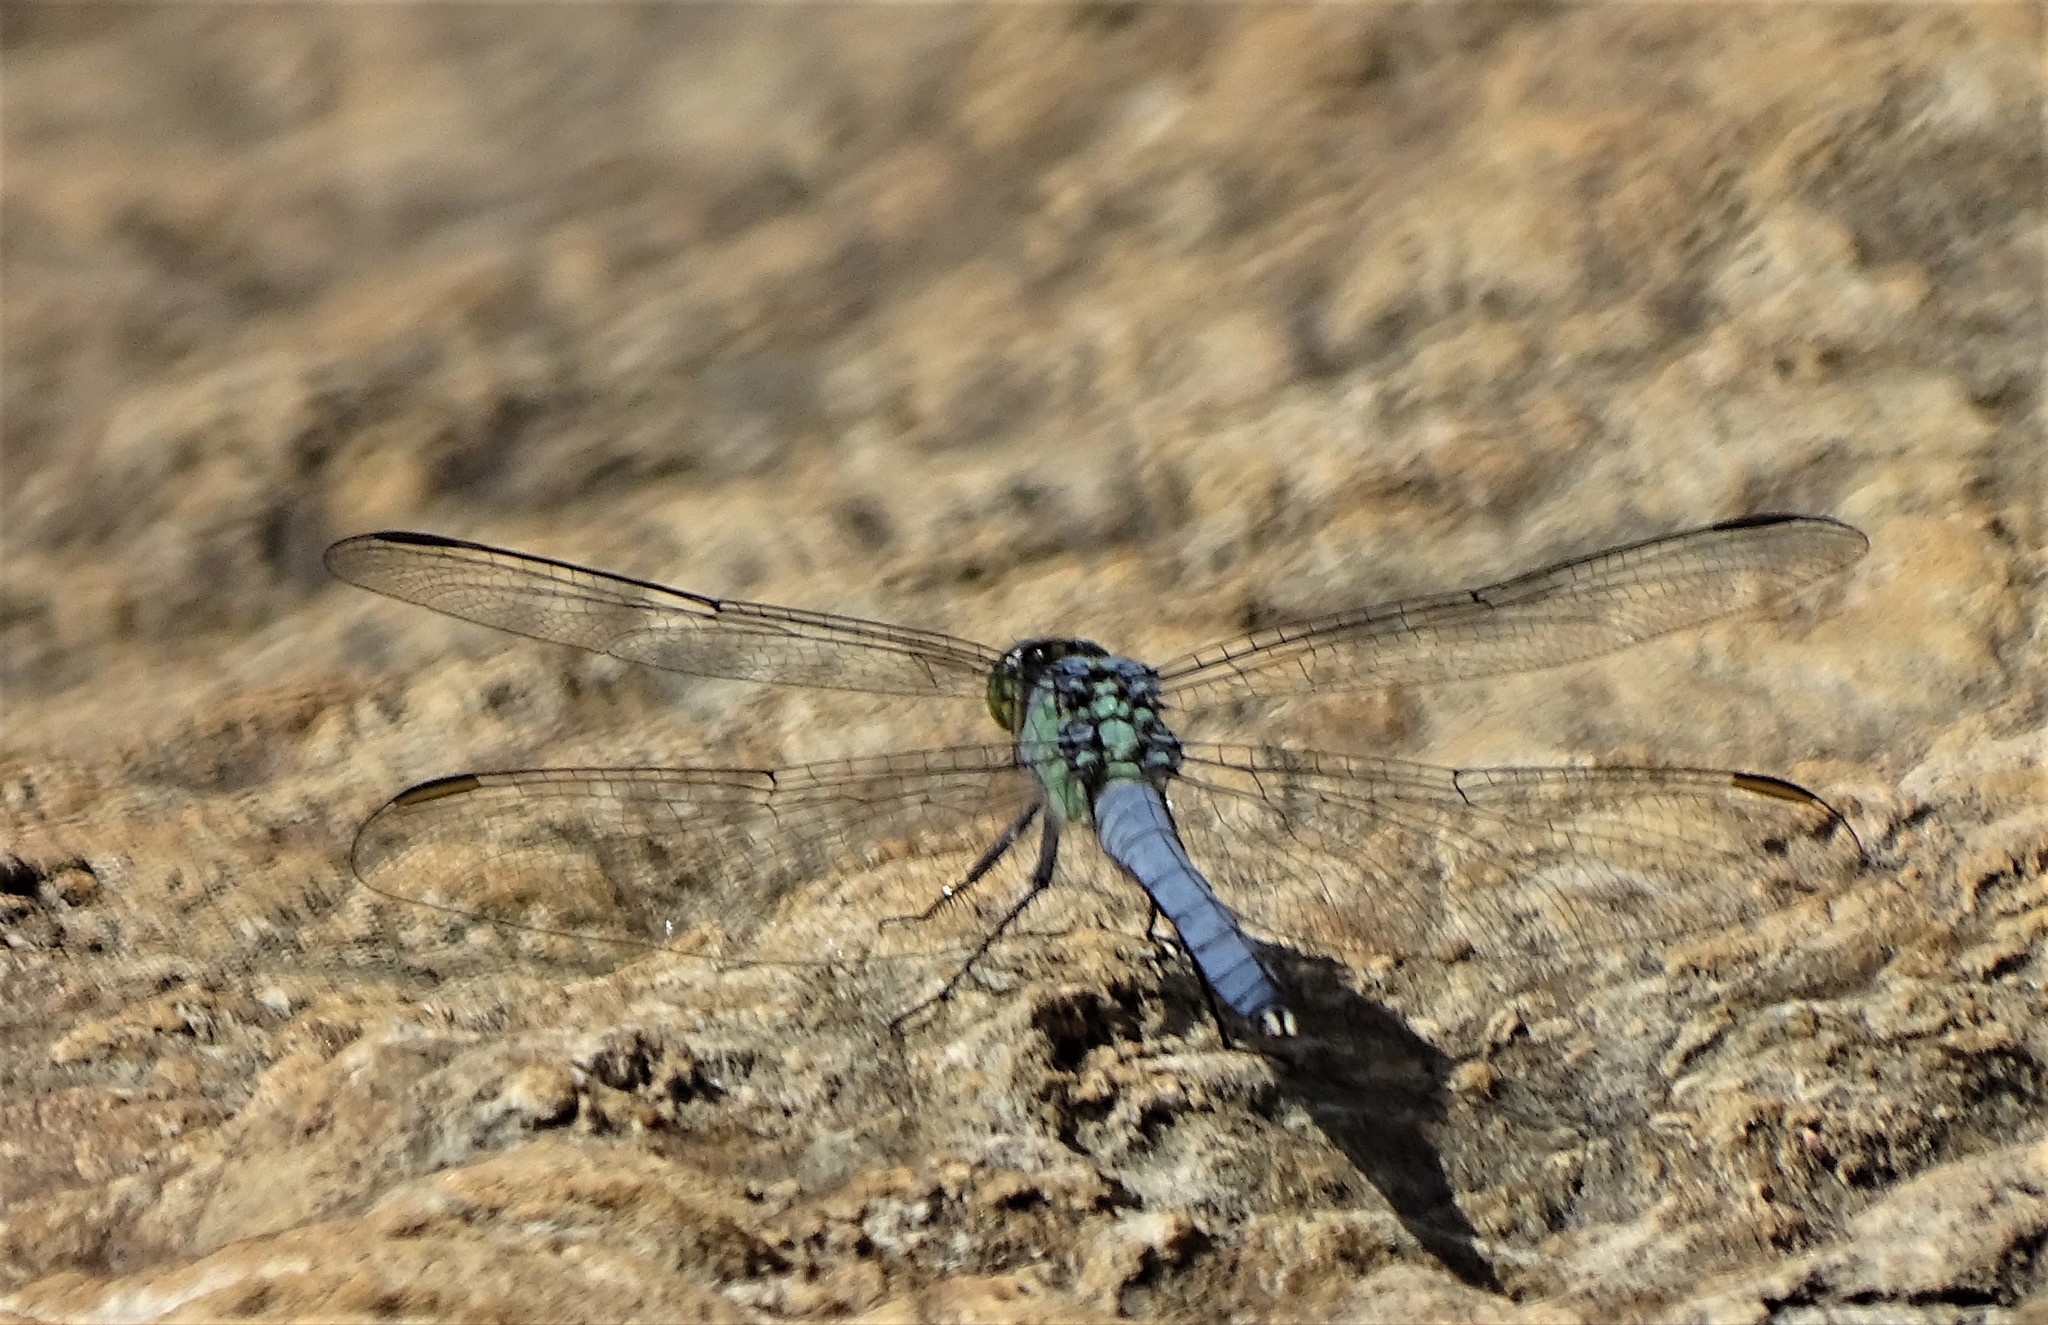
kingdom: Animalia
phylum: Arthropoda
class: Insecta
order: Odonata
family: Libellulidae
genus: Erythemis
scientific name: Erythemis simplicicollis
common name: Eastern pondhawk
